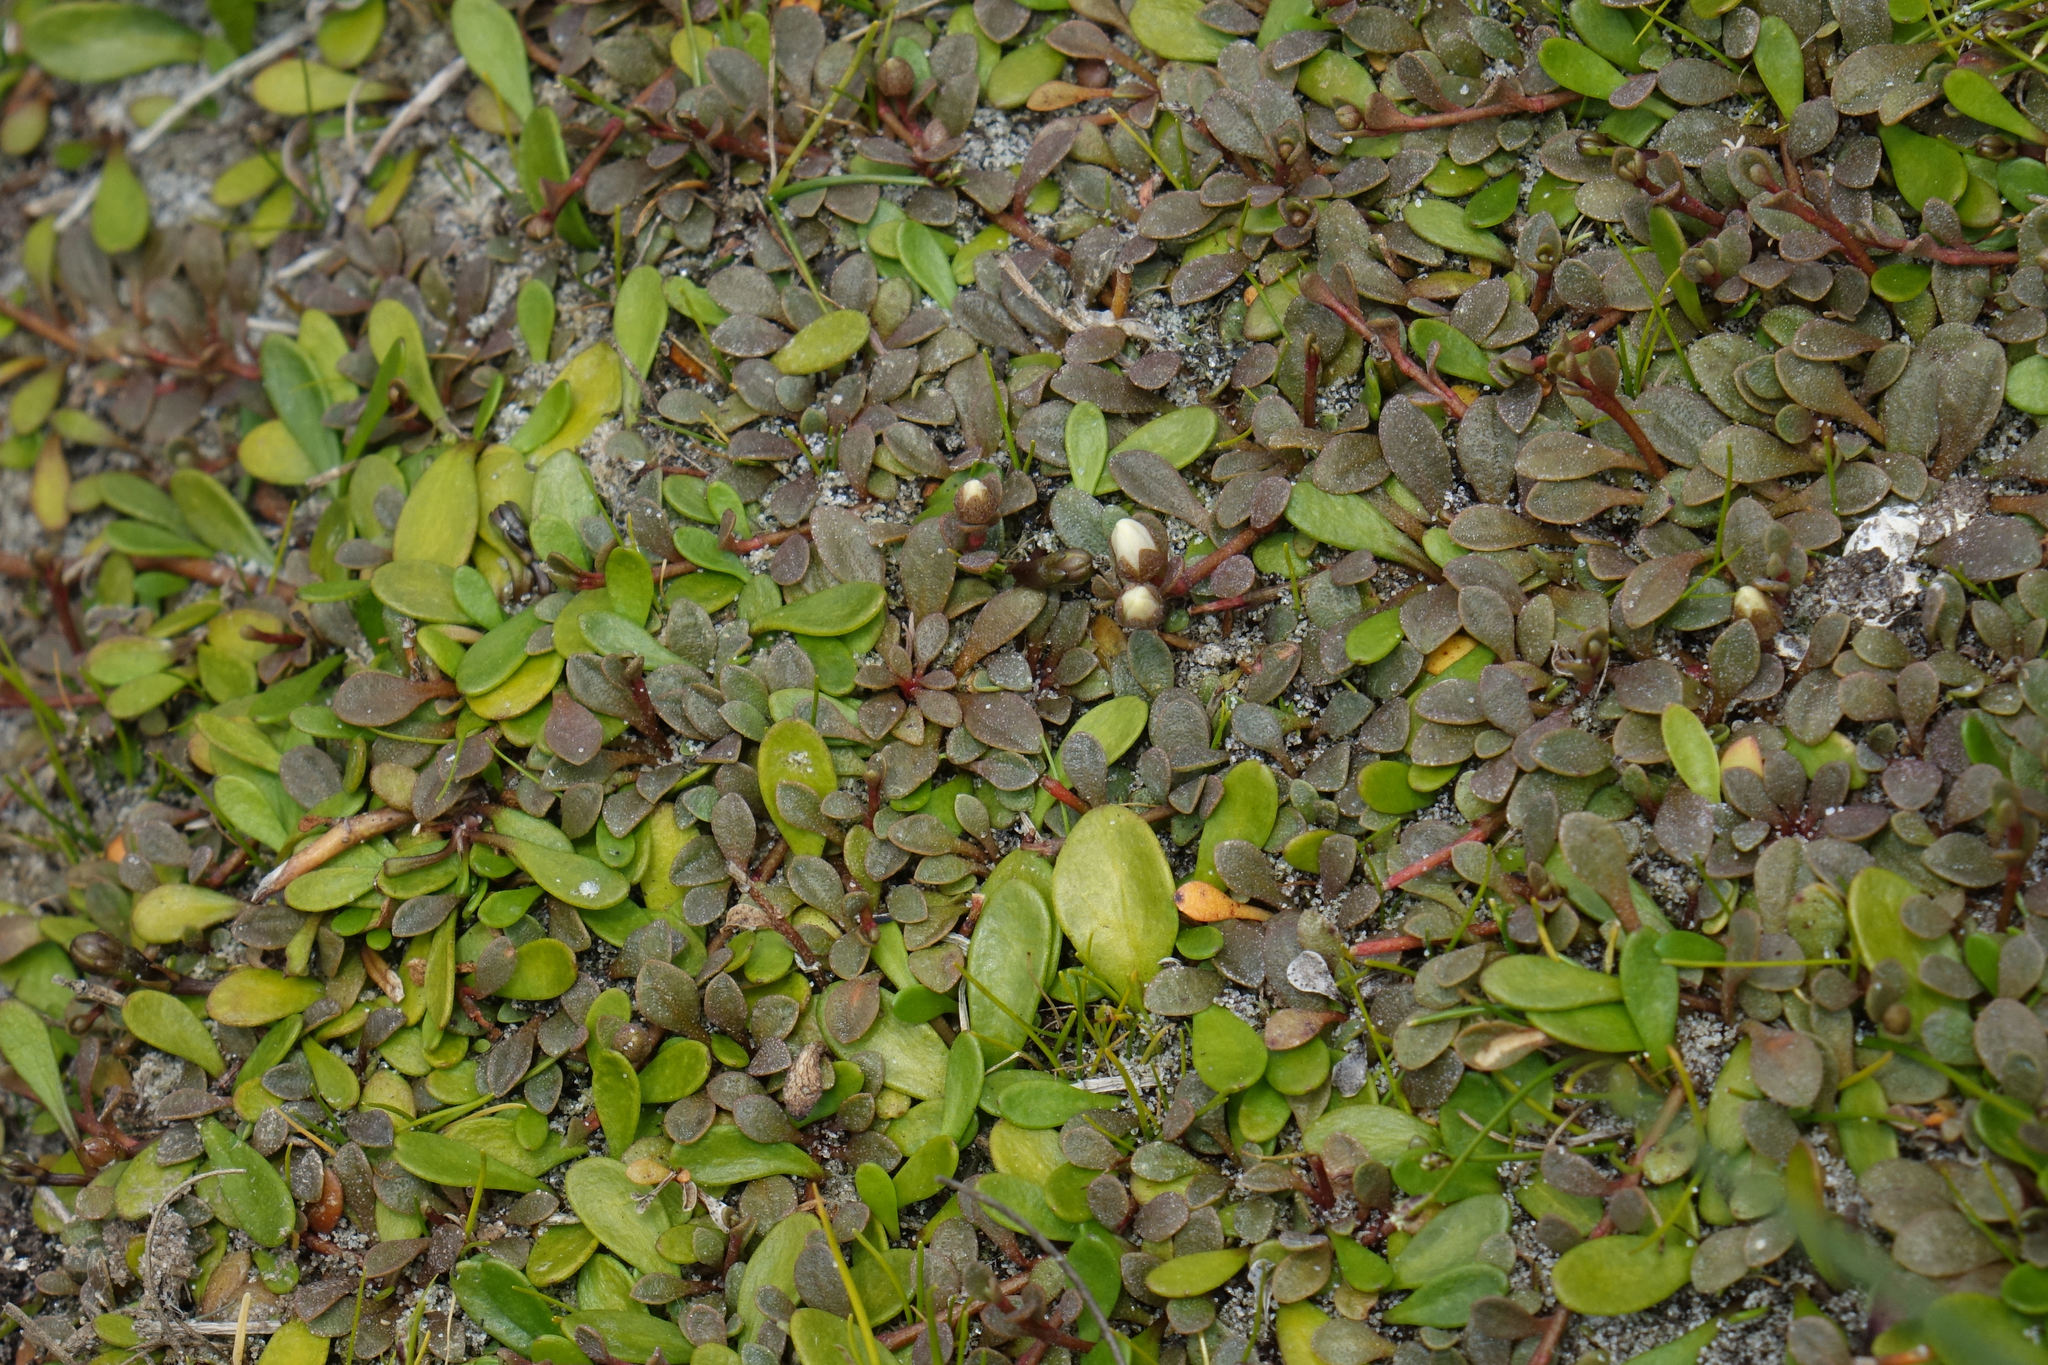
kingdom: Plantae
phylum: Tracheophyta
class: Magnoliopsida
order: Asterales
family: Goodeniaceae
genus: Goodenia
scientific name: Goodenia radicans
